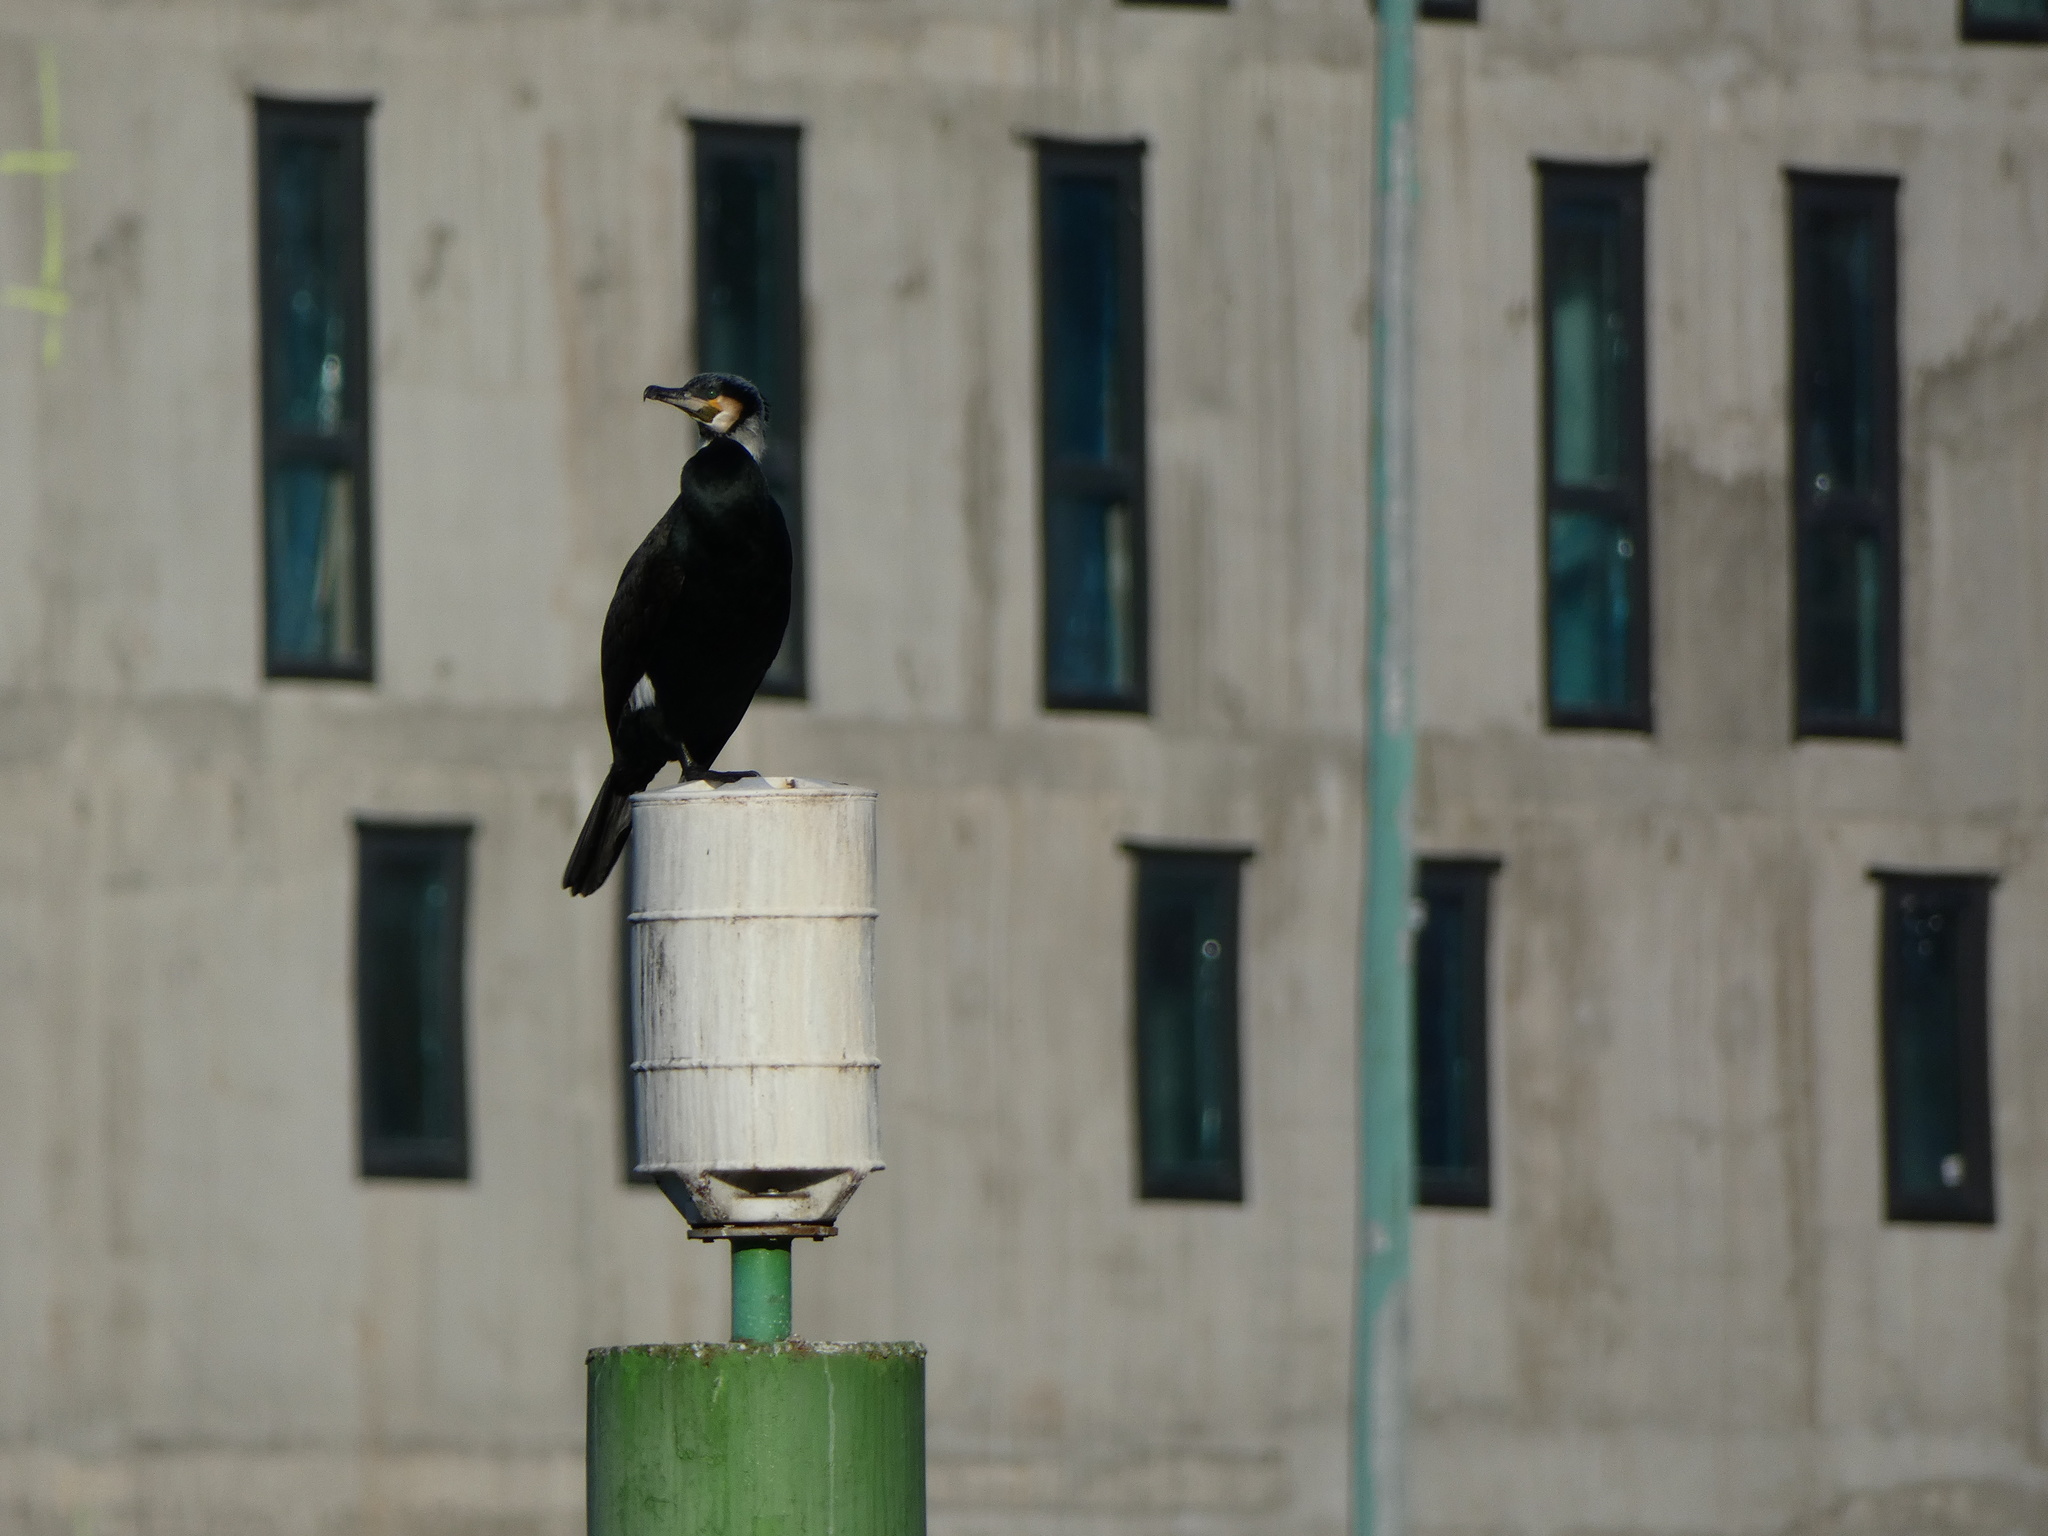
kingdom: Animalia
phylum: Chordata
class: Aves
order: Suliformes
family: Phalacrocoracidae
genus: Phalacrocorax
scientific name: Phalacrocorax carbo
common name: Great cormorant
